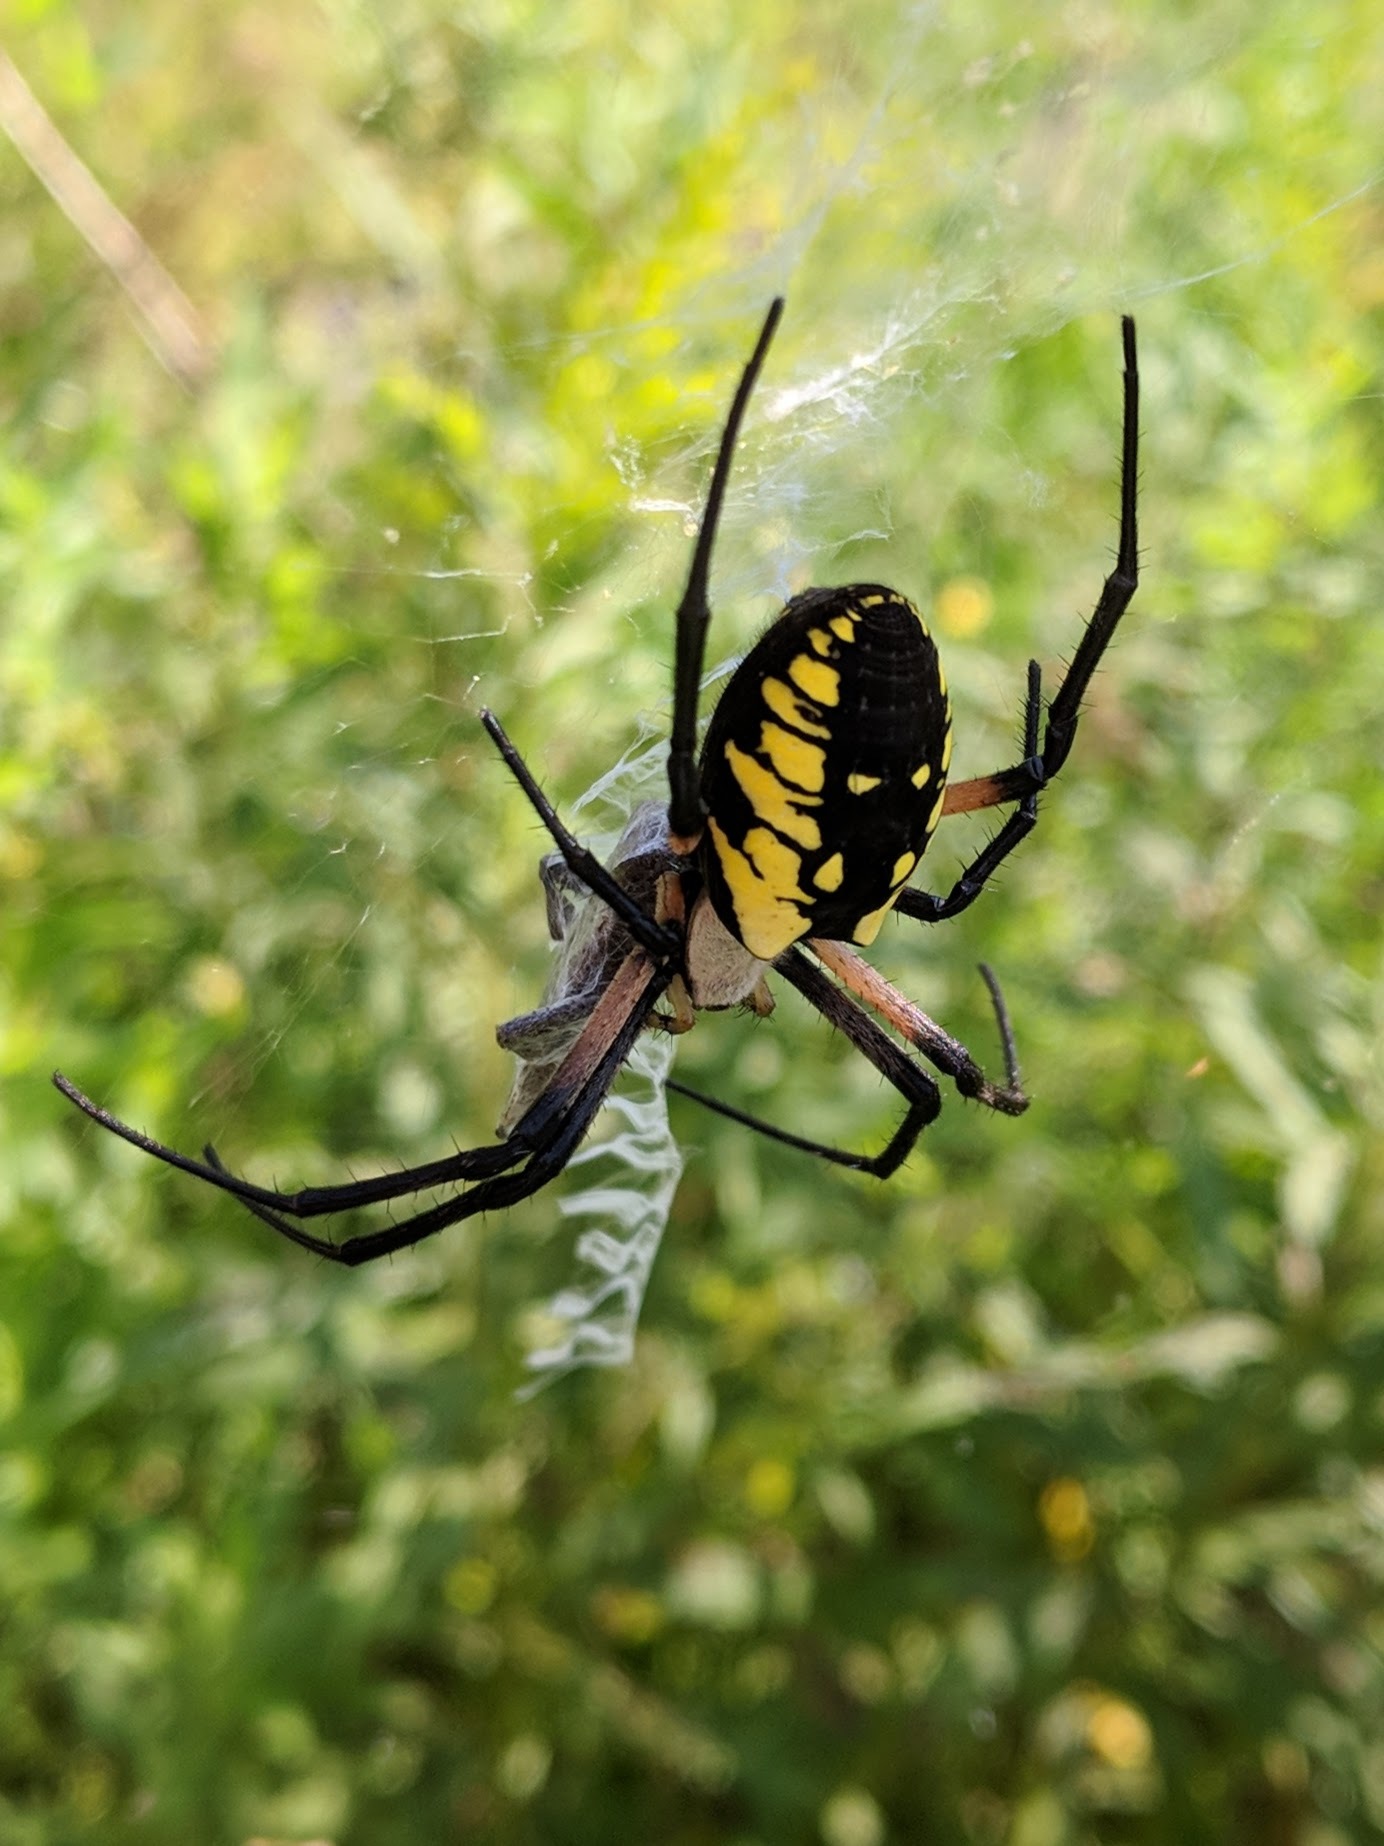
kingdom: Animalia
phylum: Arthropoda
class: Arachnida
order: Araneae
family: Araneidae
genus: Argiope
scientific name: Argiope aurantia
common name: Orb weavers
